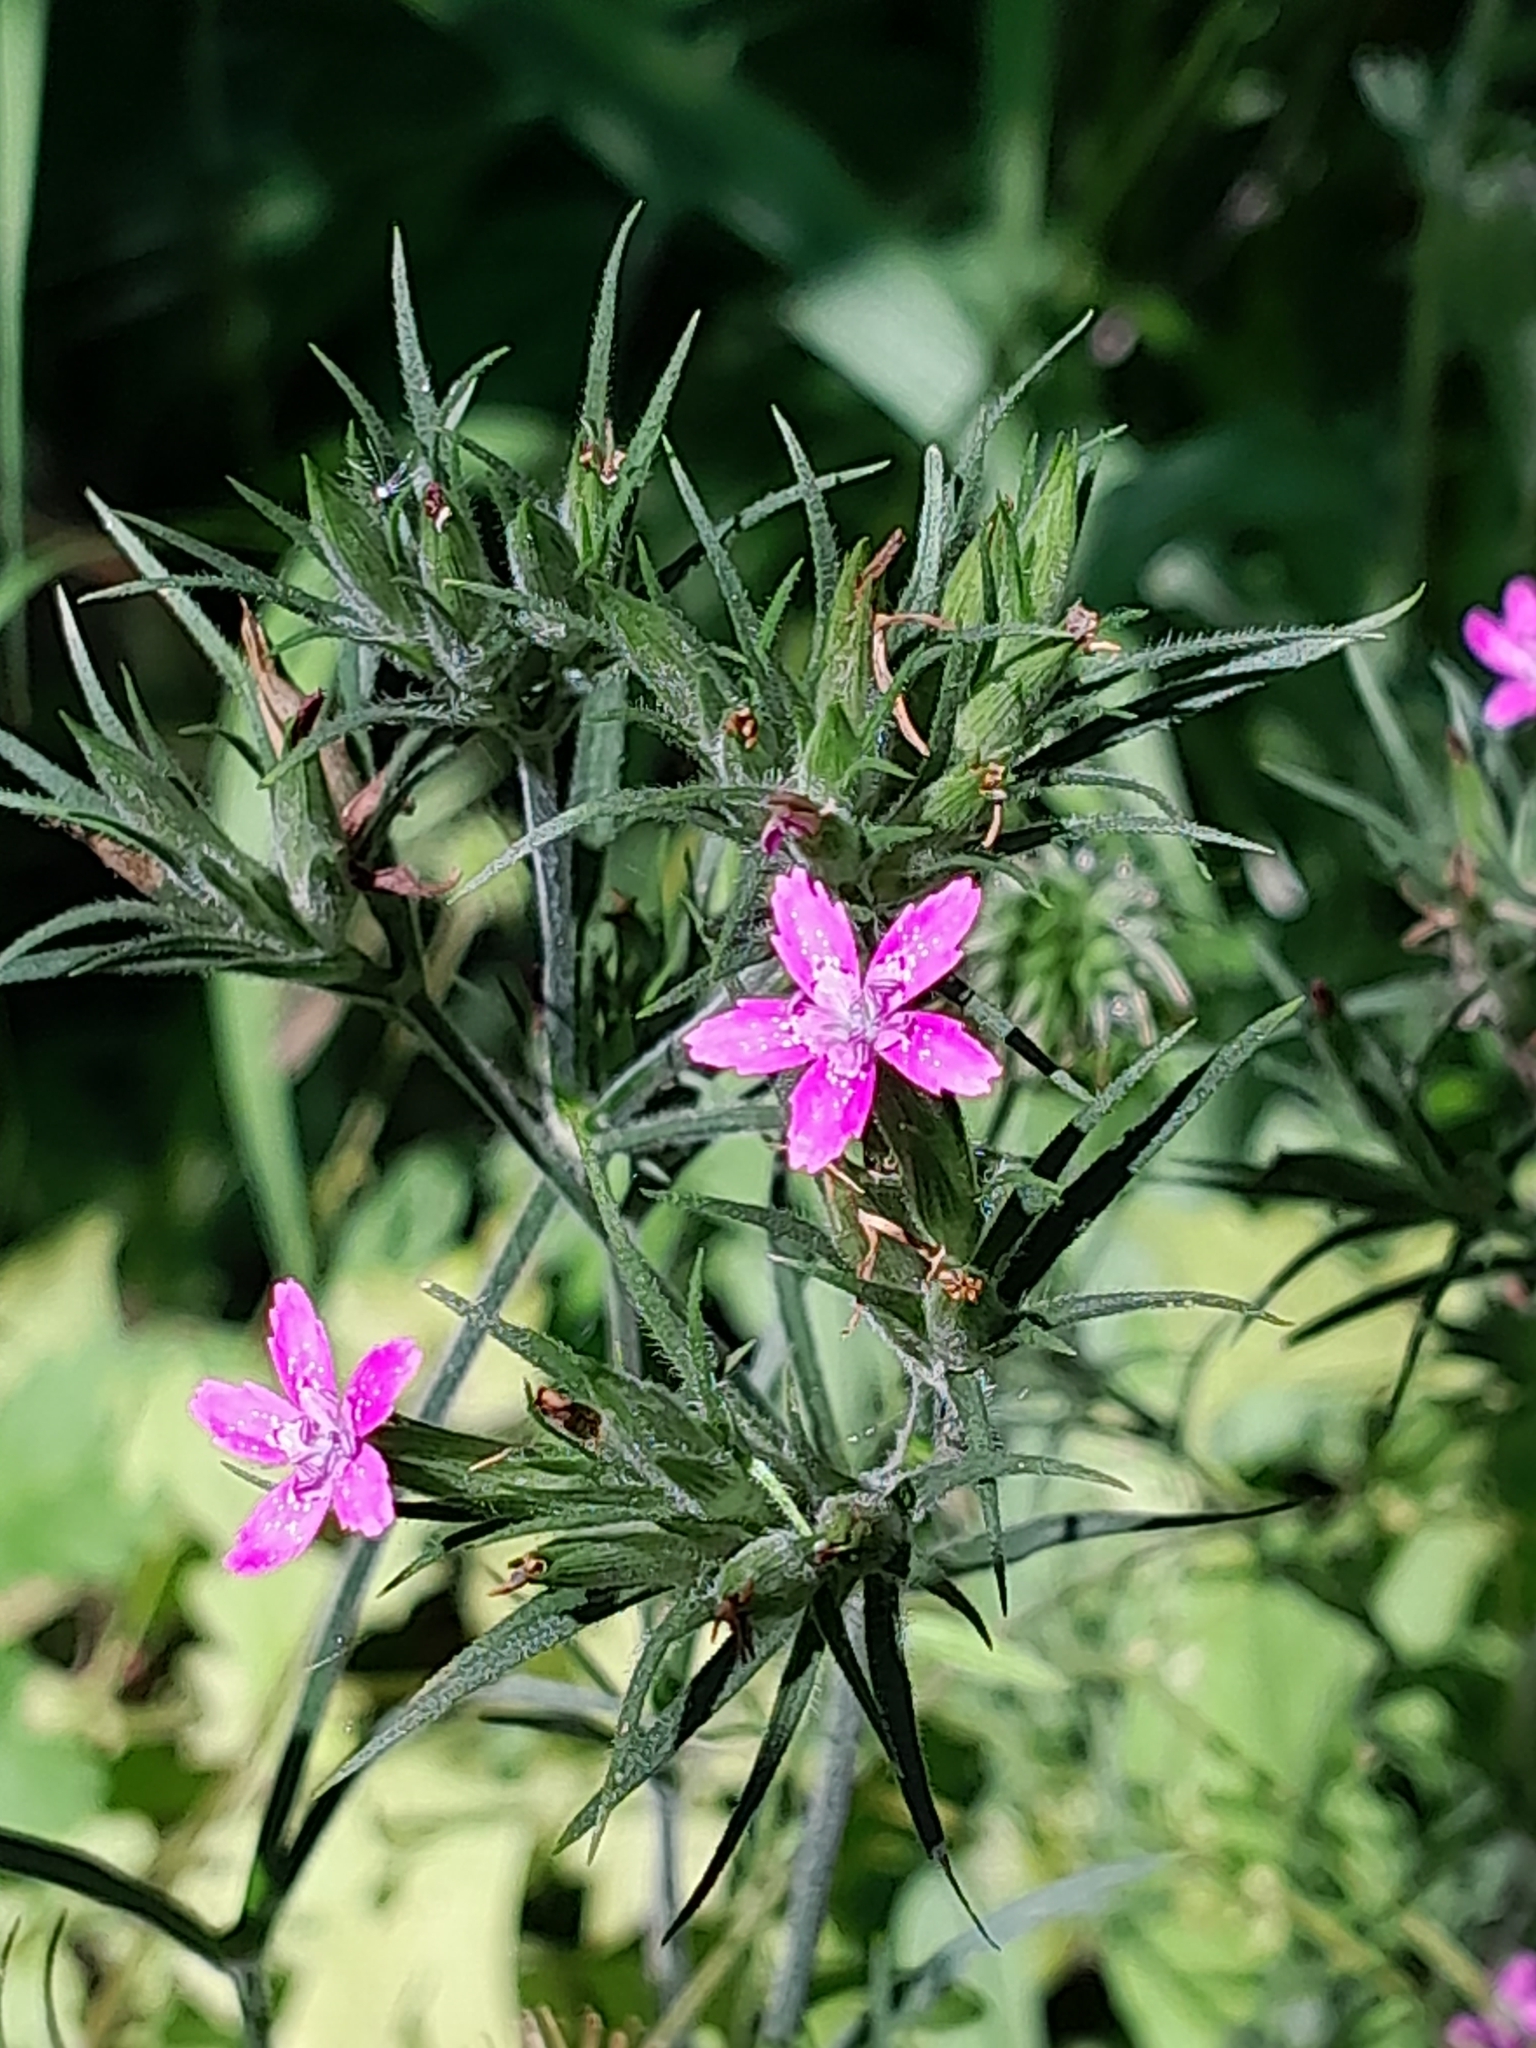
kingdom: Plantae
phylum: Tracheophyta
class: Magnoliopsida
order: Caryophyllales
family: Caryophyllaceae
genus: Dianthus
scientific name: Dianthus armeria
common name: Deptford pink
